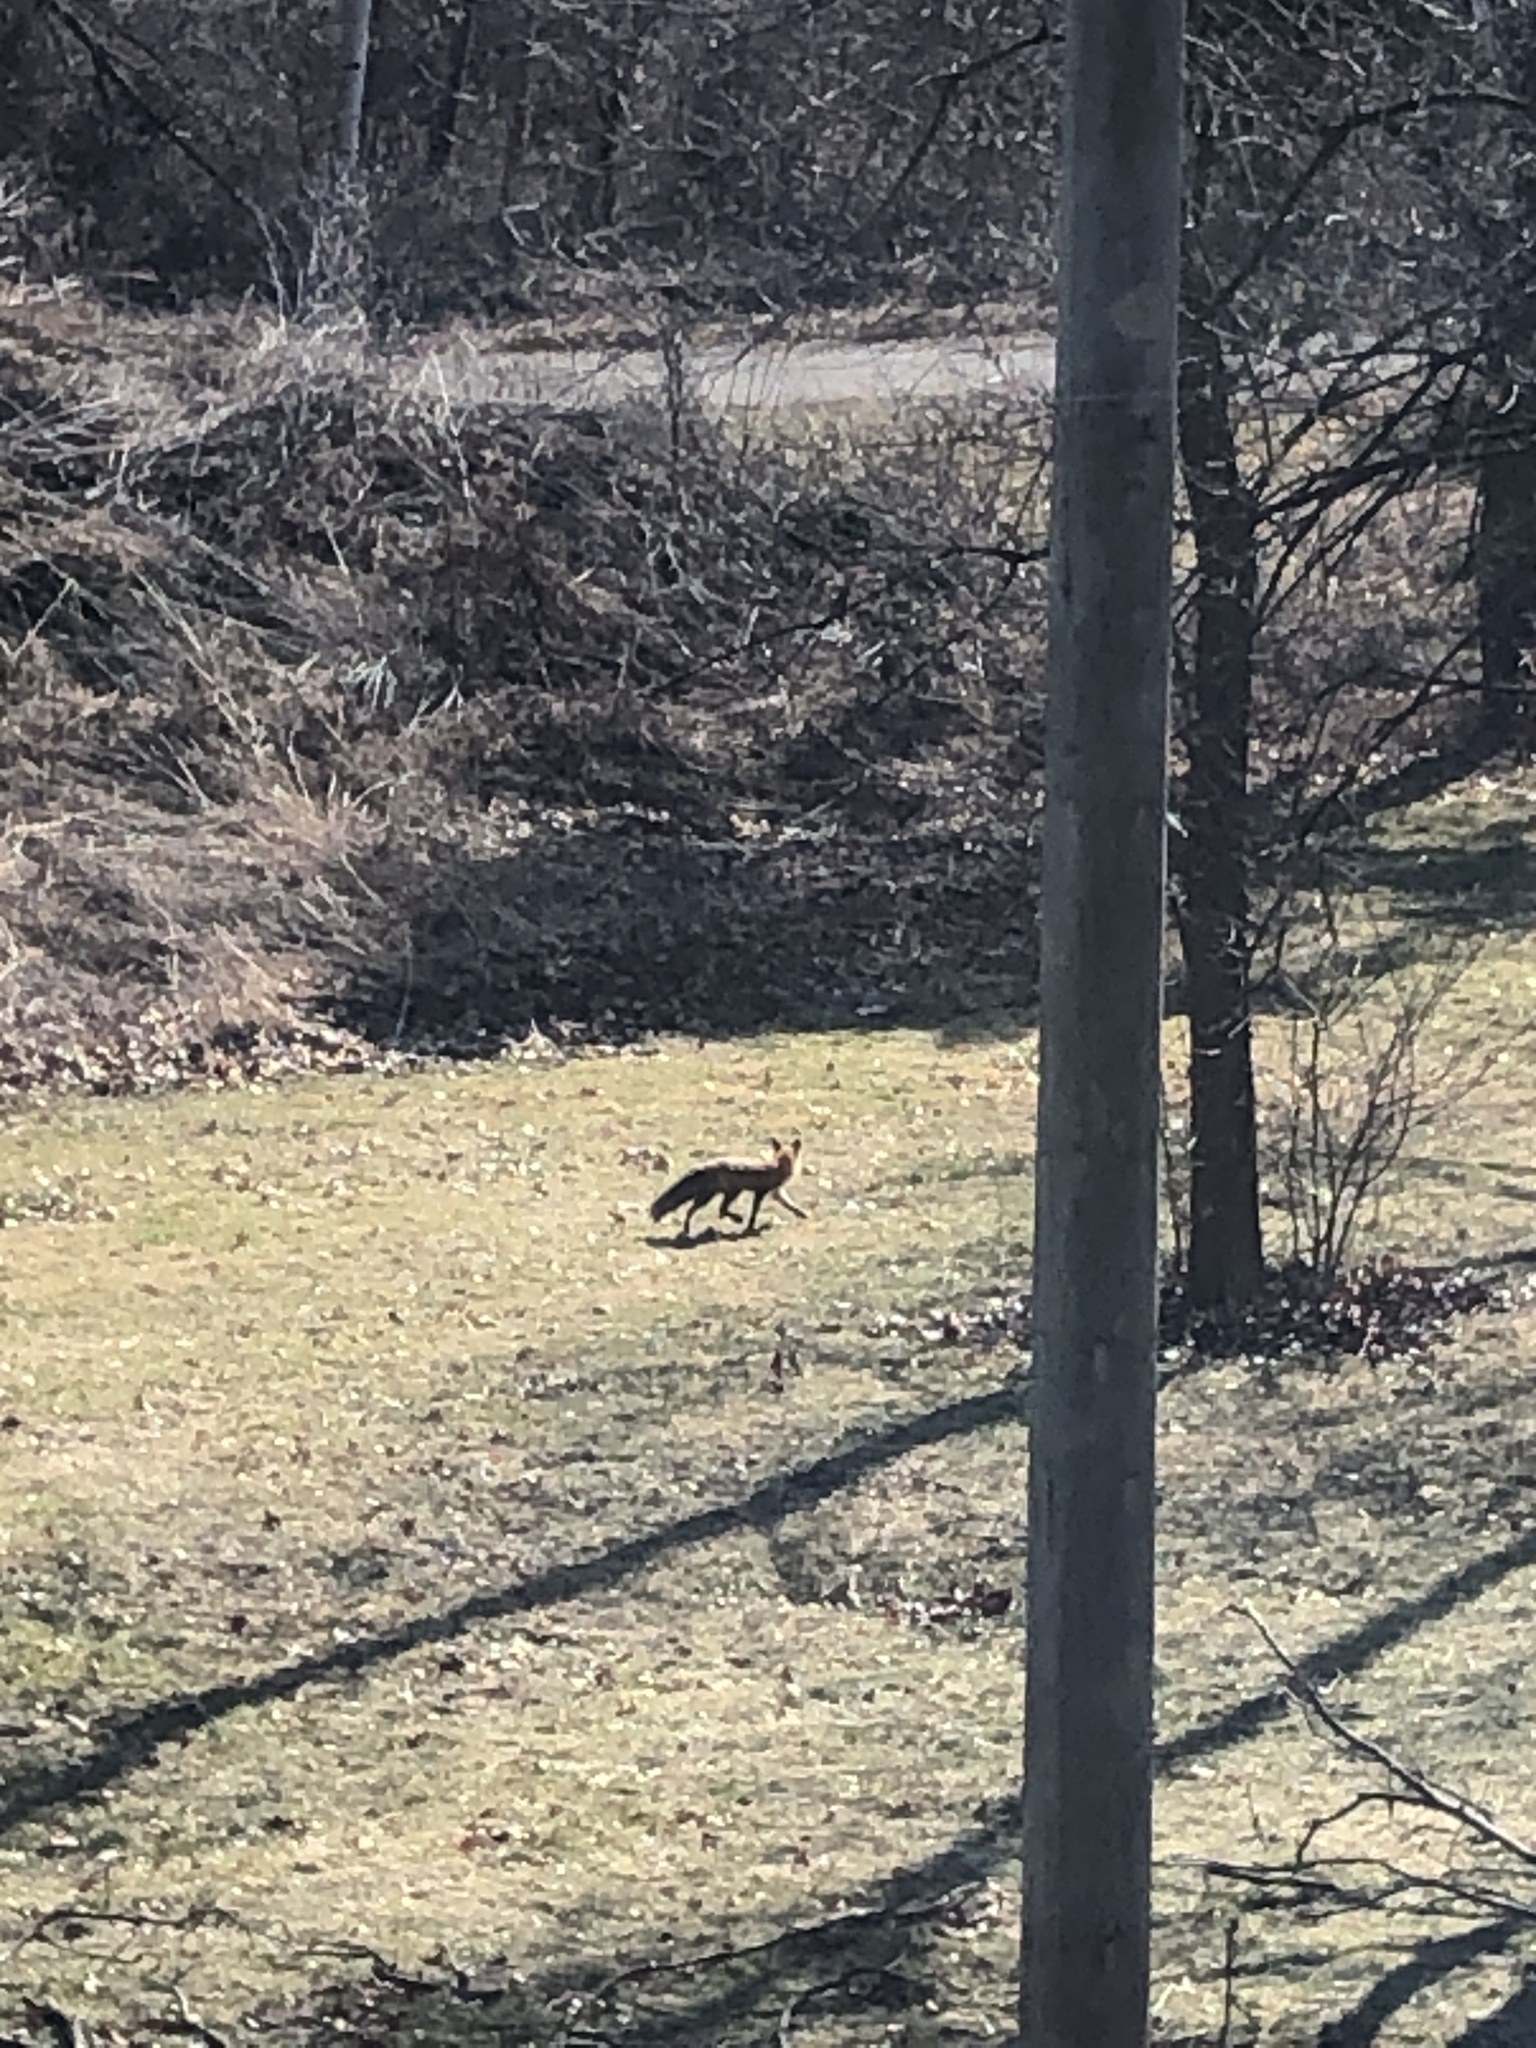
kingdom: Animalia
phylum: Chordata
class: Mammalia
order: Carnivora
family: Canidae
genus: Vulpes
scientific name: Vulpes vulpes
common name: Red fox
